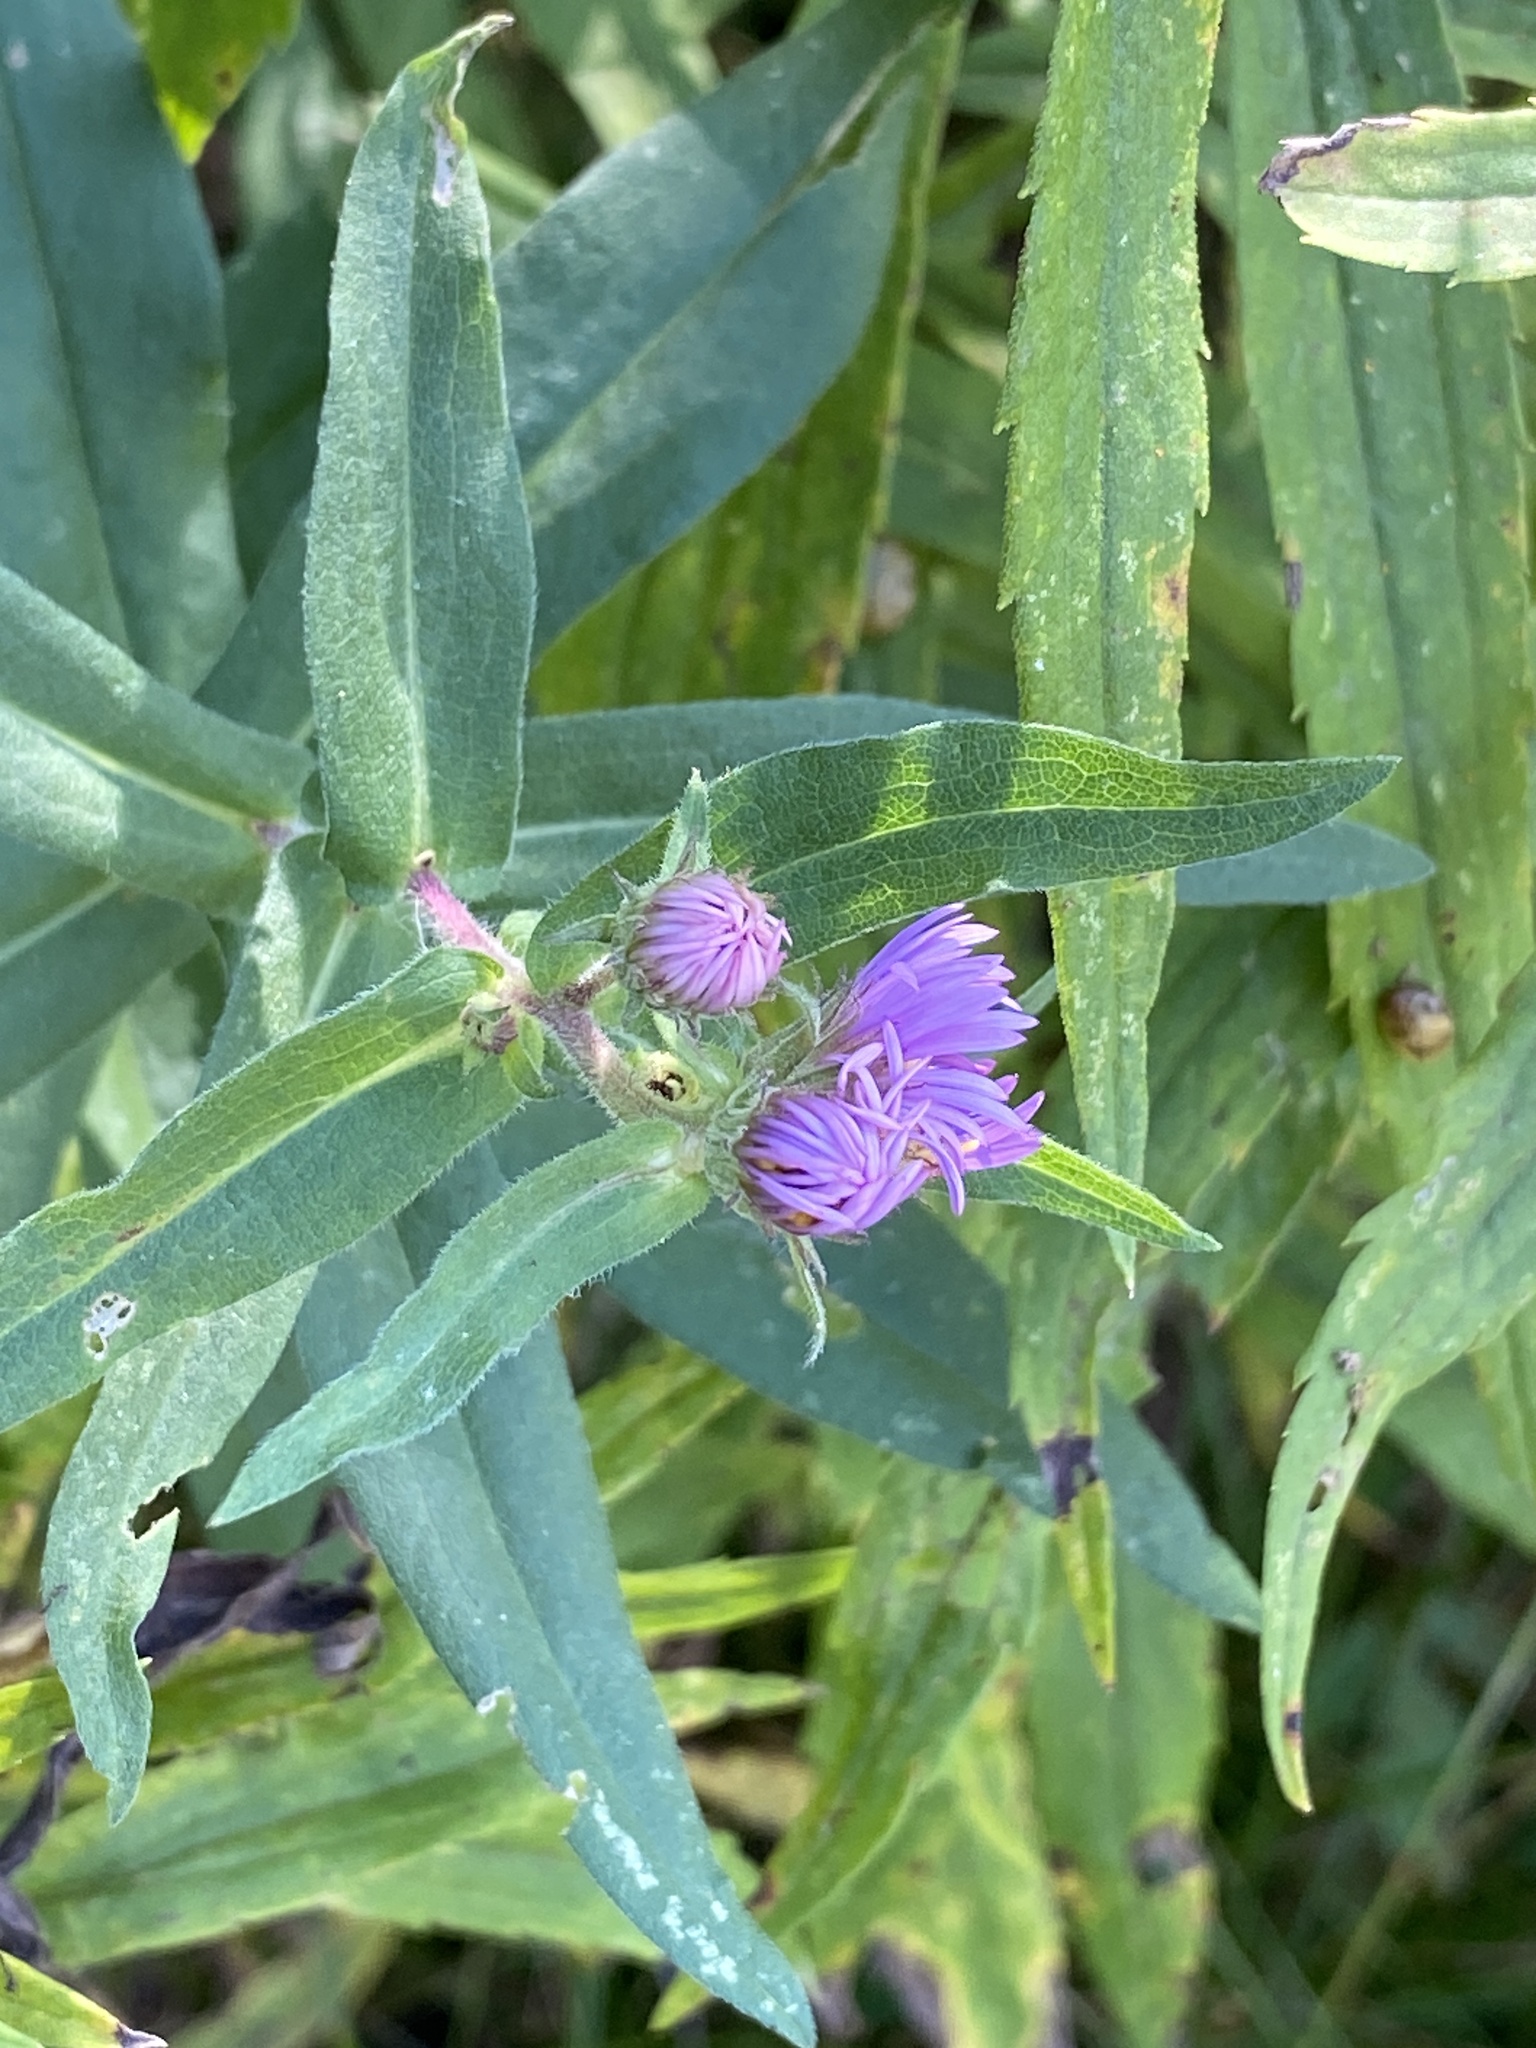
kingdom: Plantae
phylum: Tracheophyta
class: Magnoliopsida
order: Asterales
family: Asteraceae
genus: Symphyotrichum
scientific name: Symphyotrichum novae-angliae
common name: Michaelmas daisy
